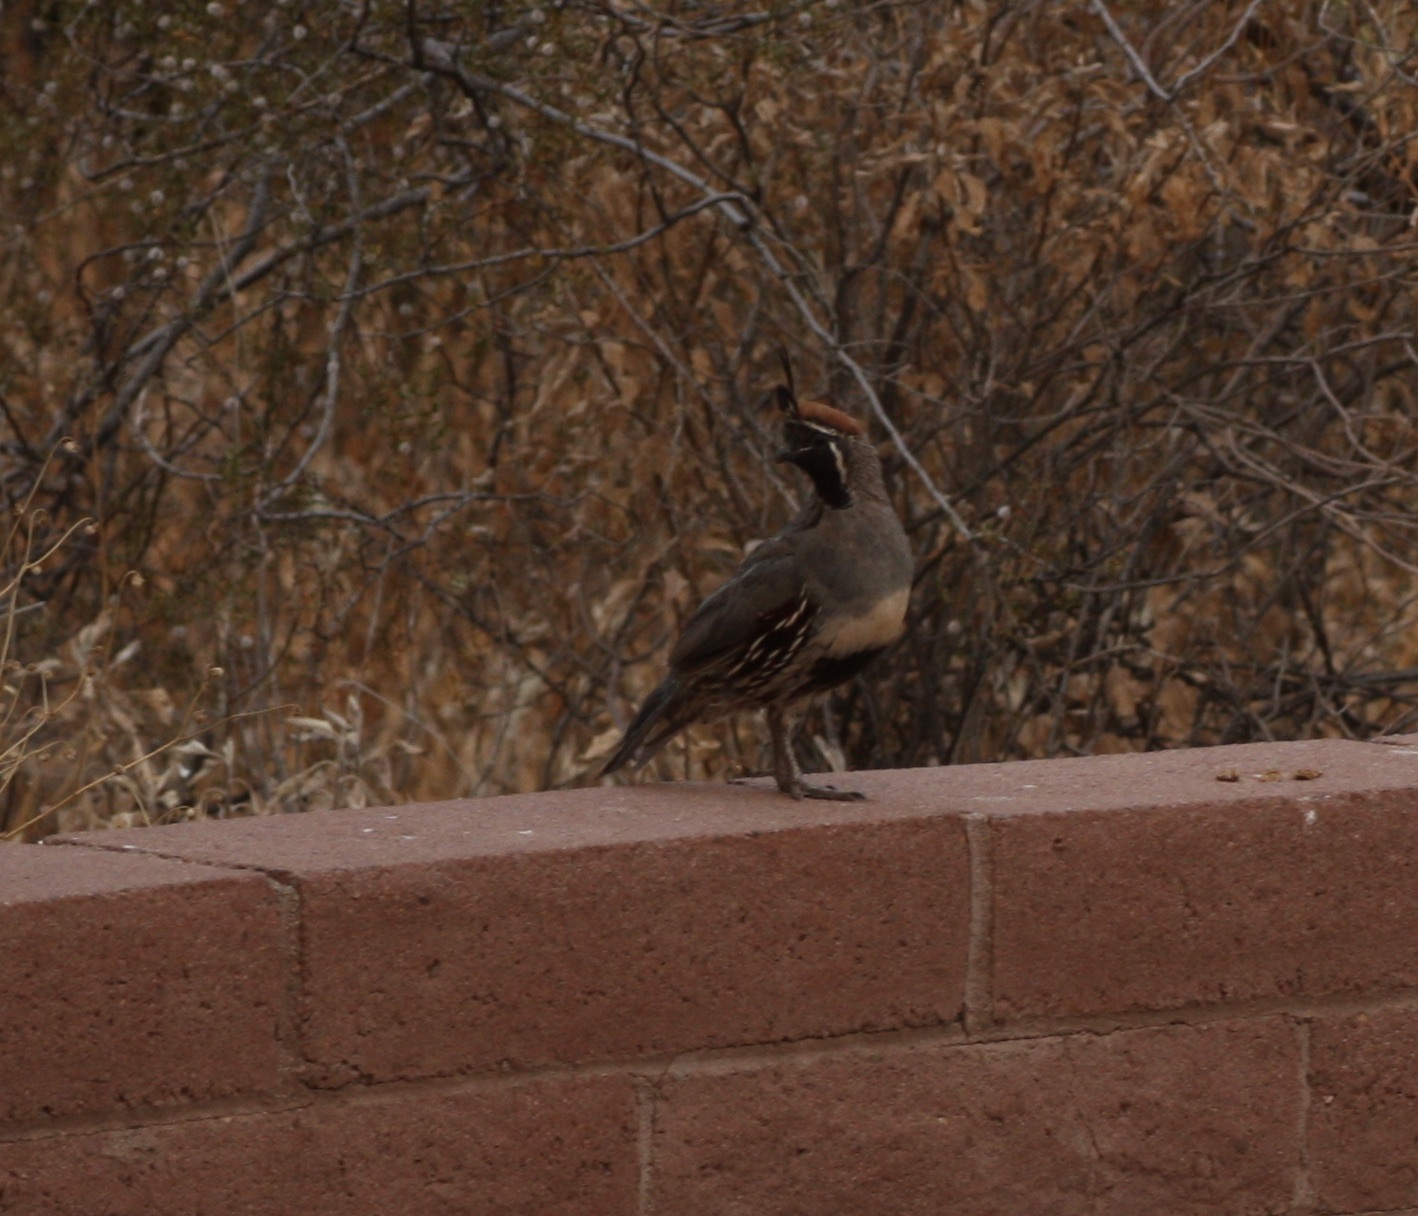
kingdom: Animalia
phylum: Chordata
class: Aves
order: Galliformes
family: Odontophoridae
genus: Callipepla
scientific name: Callipepla gambelii
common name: Gambel's quail
